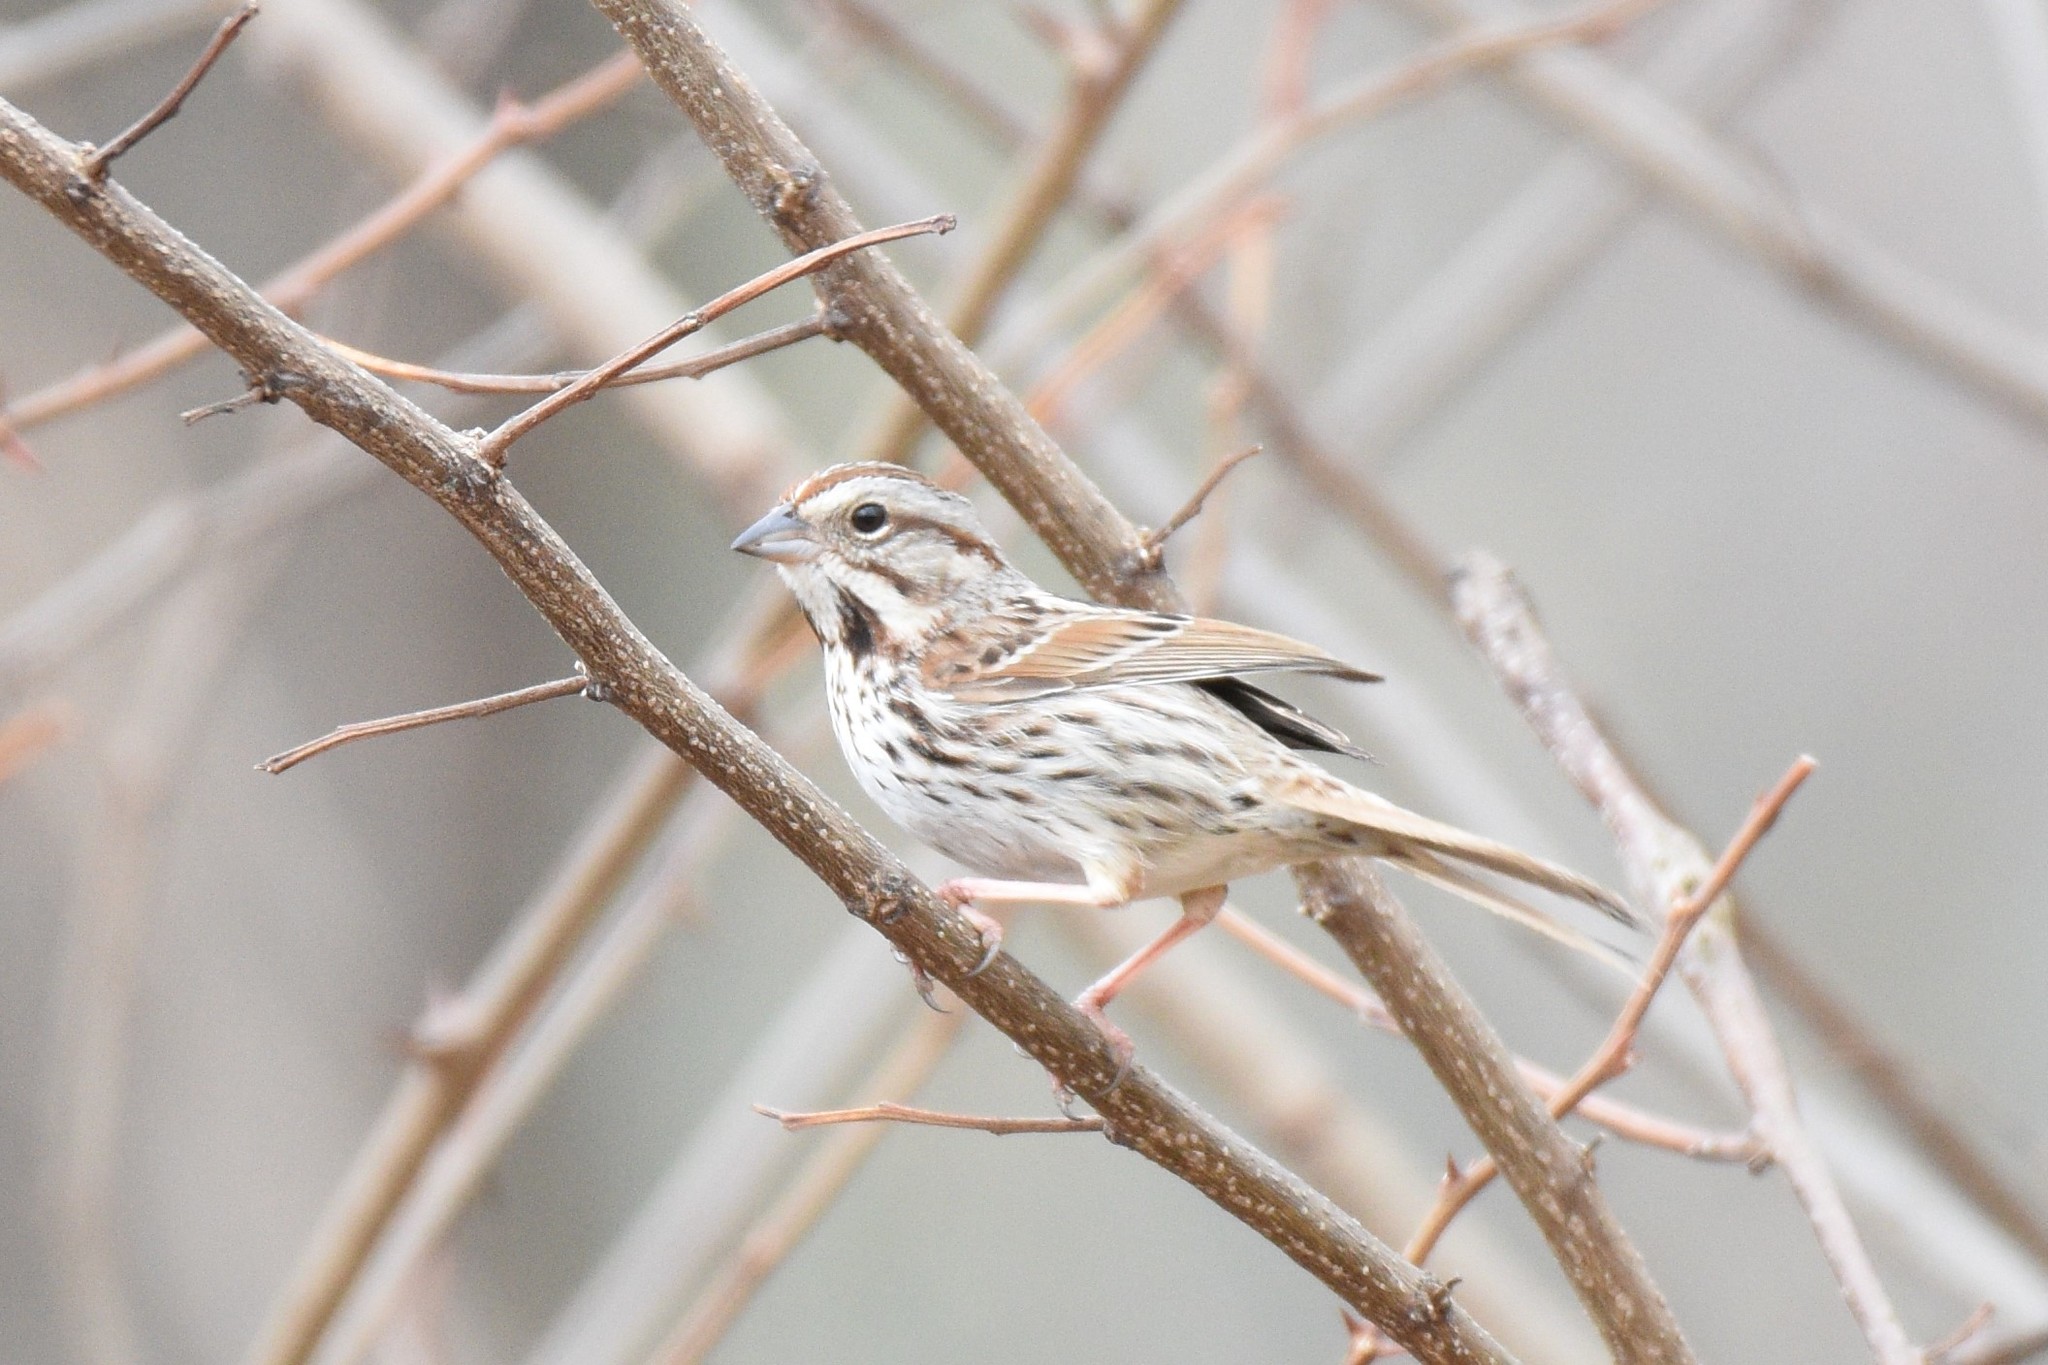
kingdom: Animalia
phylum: Chordata
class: Aves
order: Passeriformes
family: Passerellidae
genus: Melospiza
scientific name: Melospiza melodia
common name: Song sparrow
